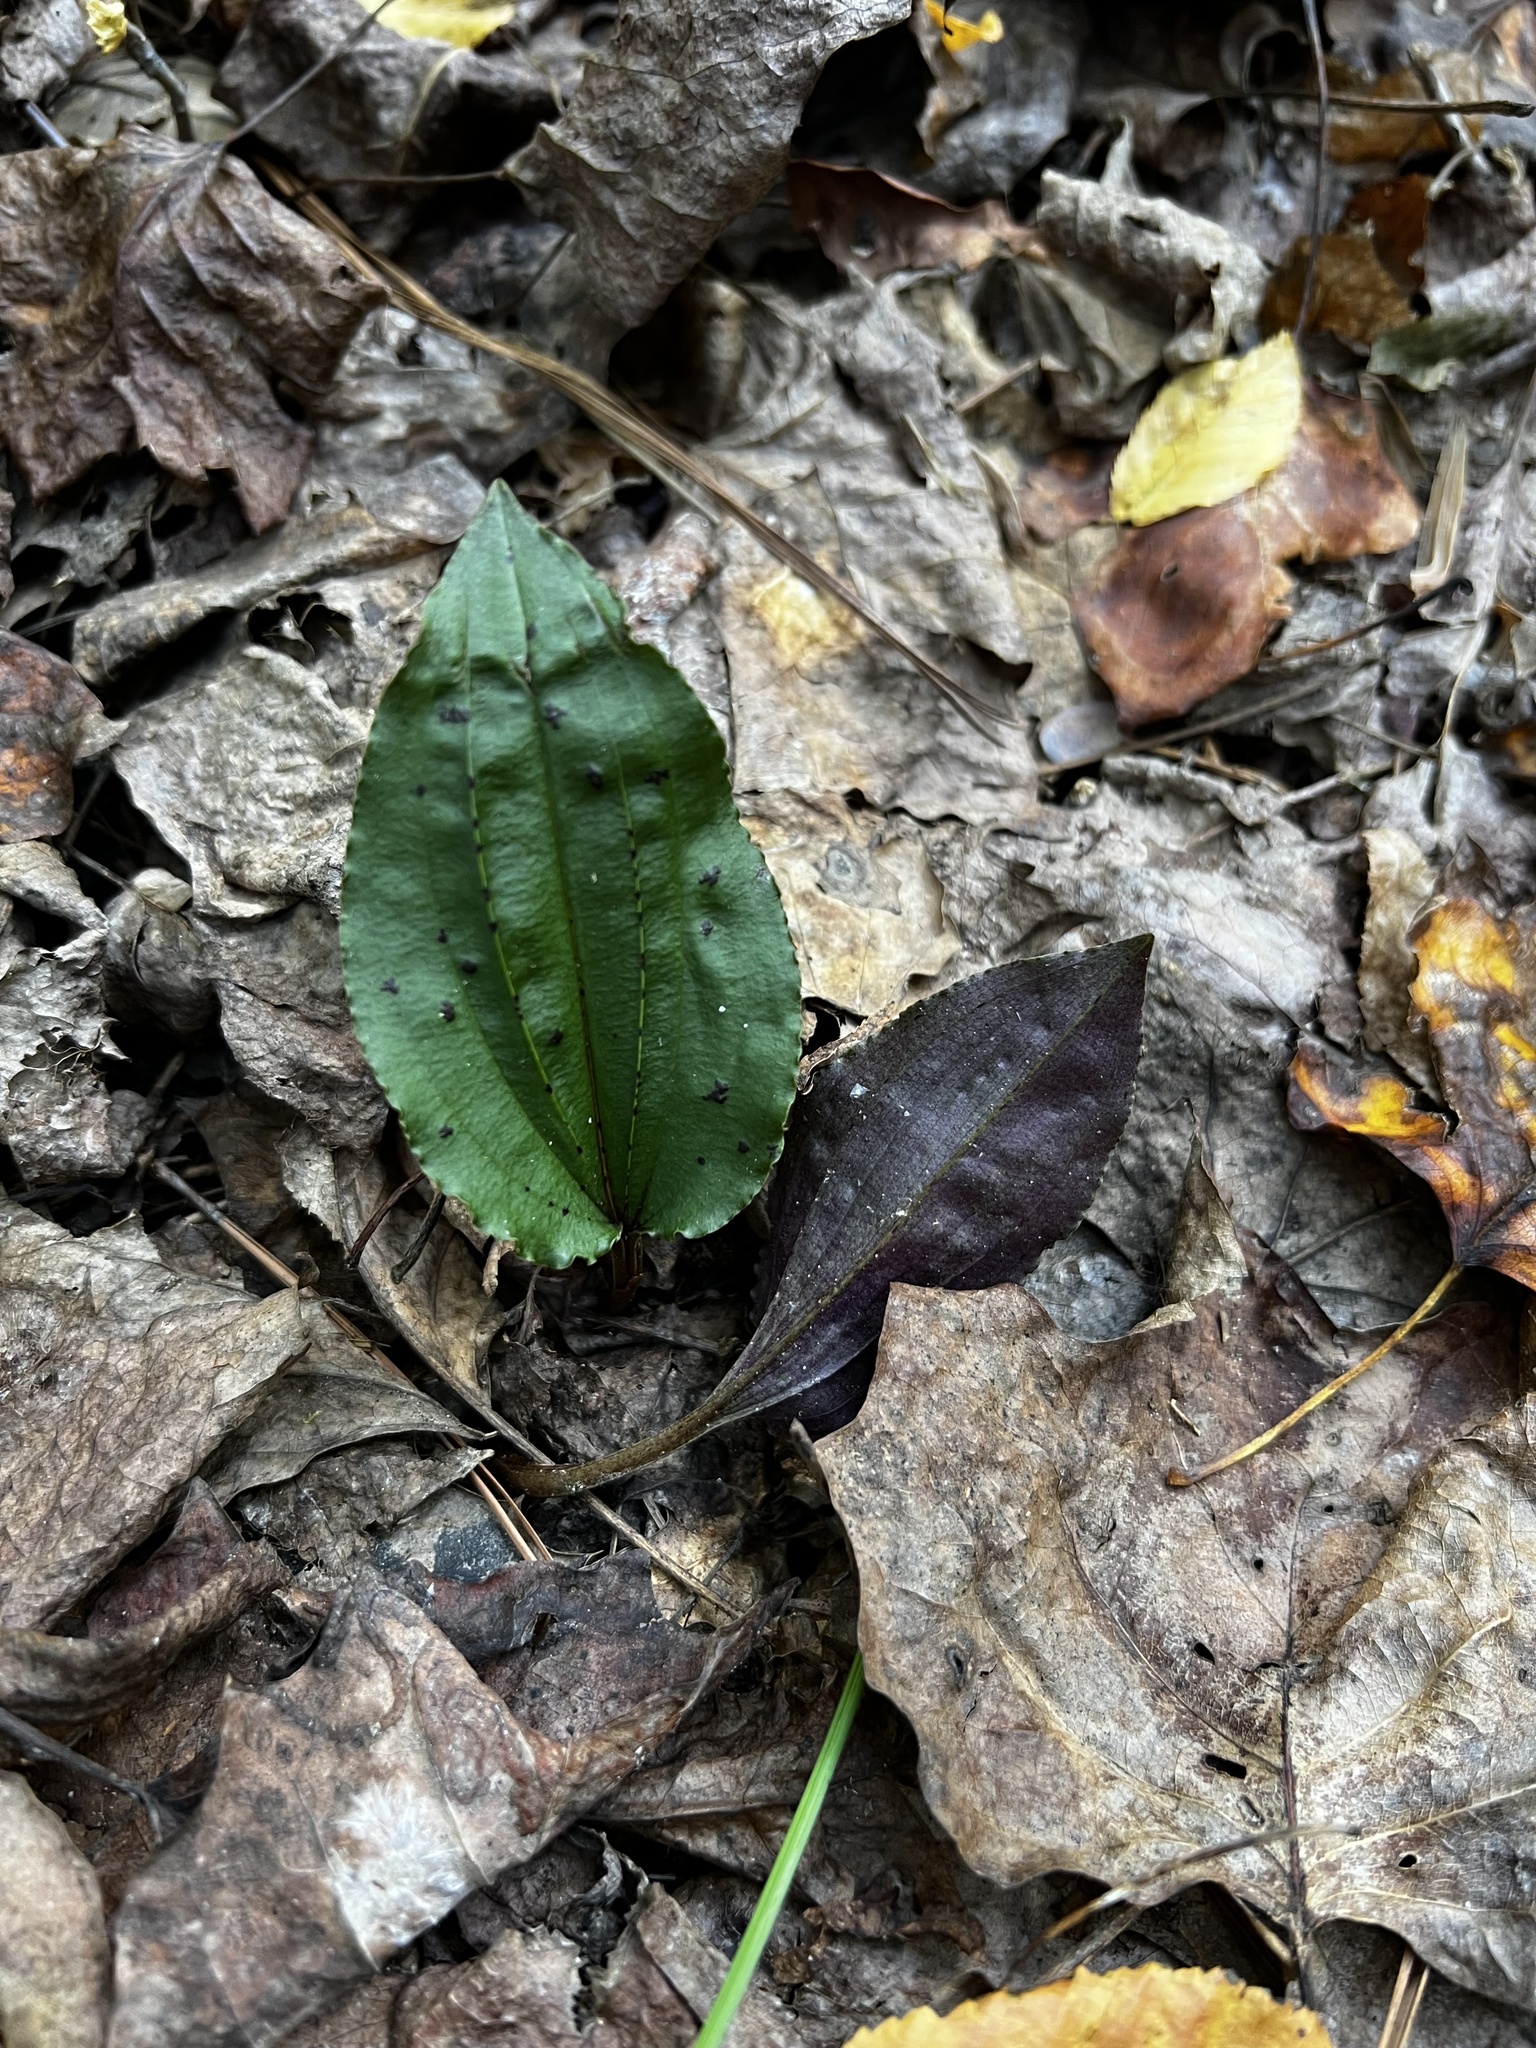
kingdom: Plantae
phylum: Tracheophyta
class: Liliopsida
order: Asparagales
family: Orchidaceae
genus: Tipularia
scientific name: Tipularia discolor
